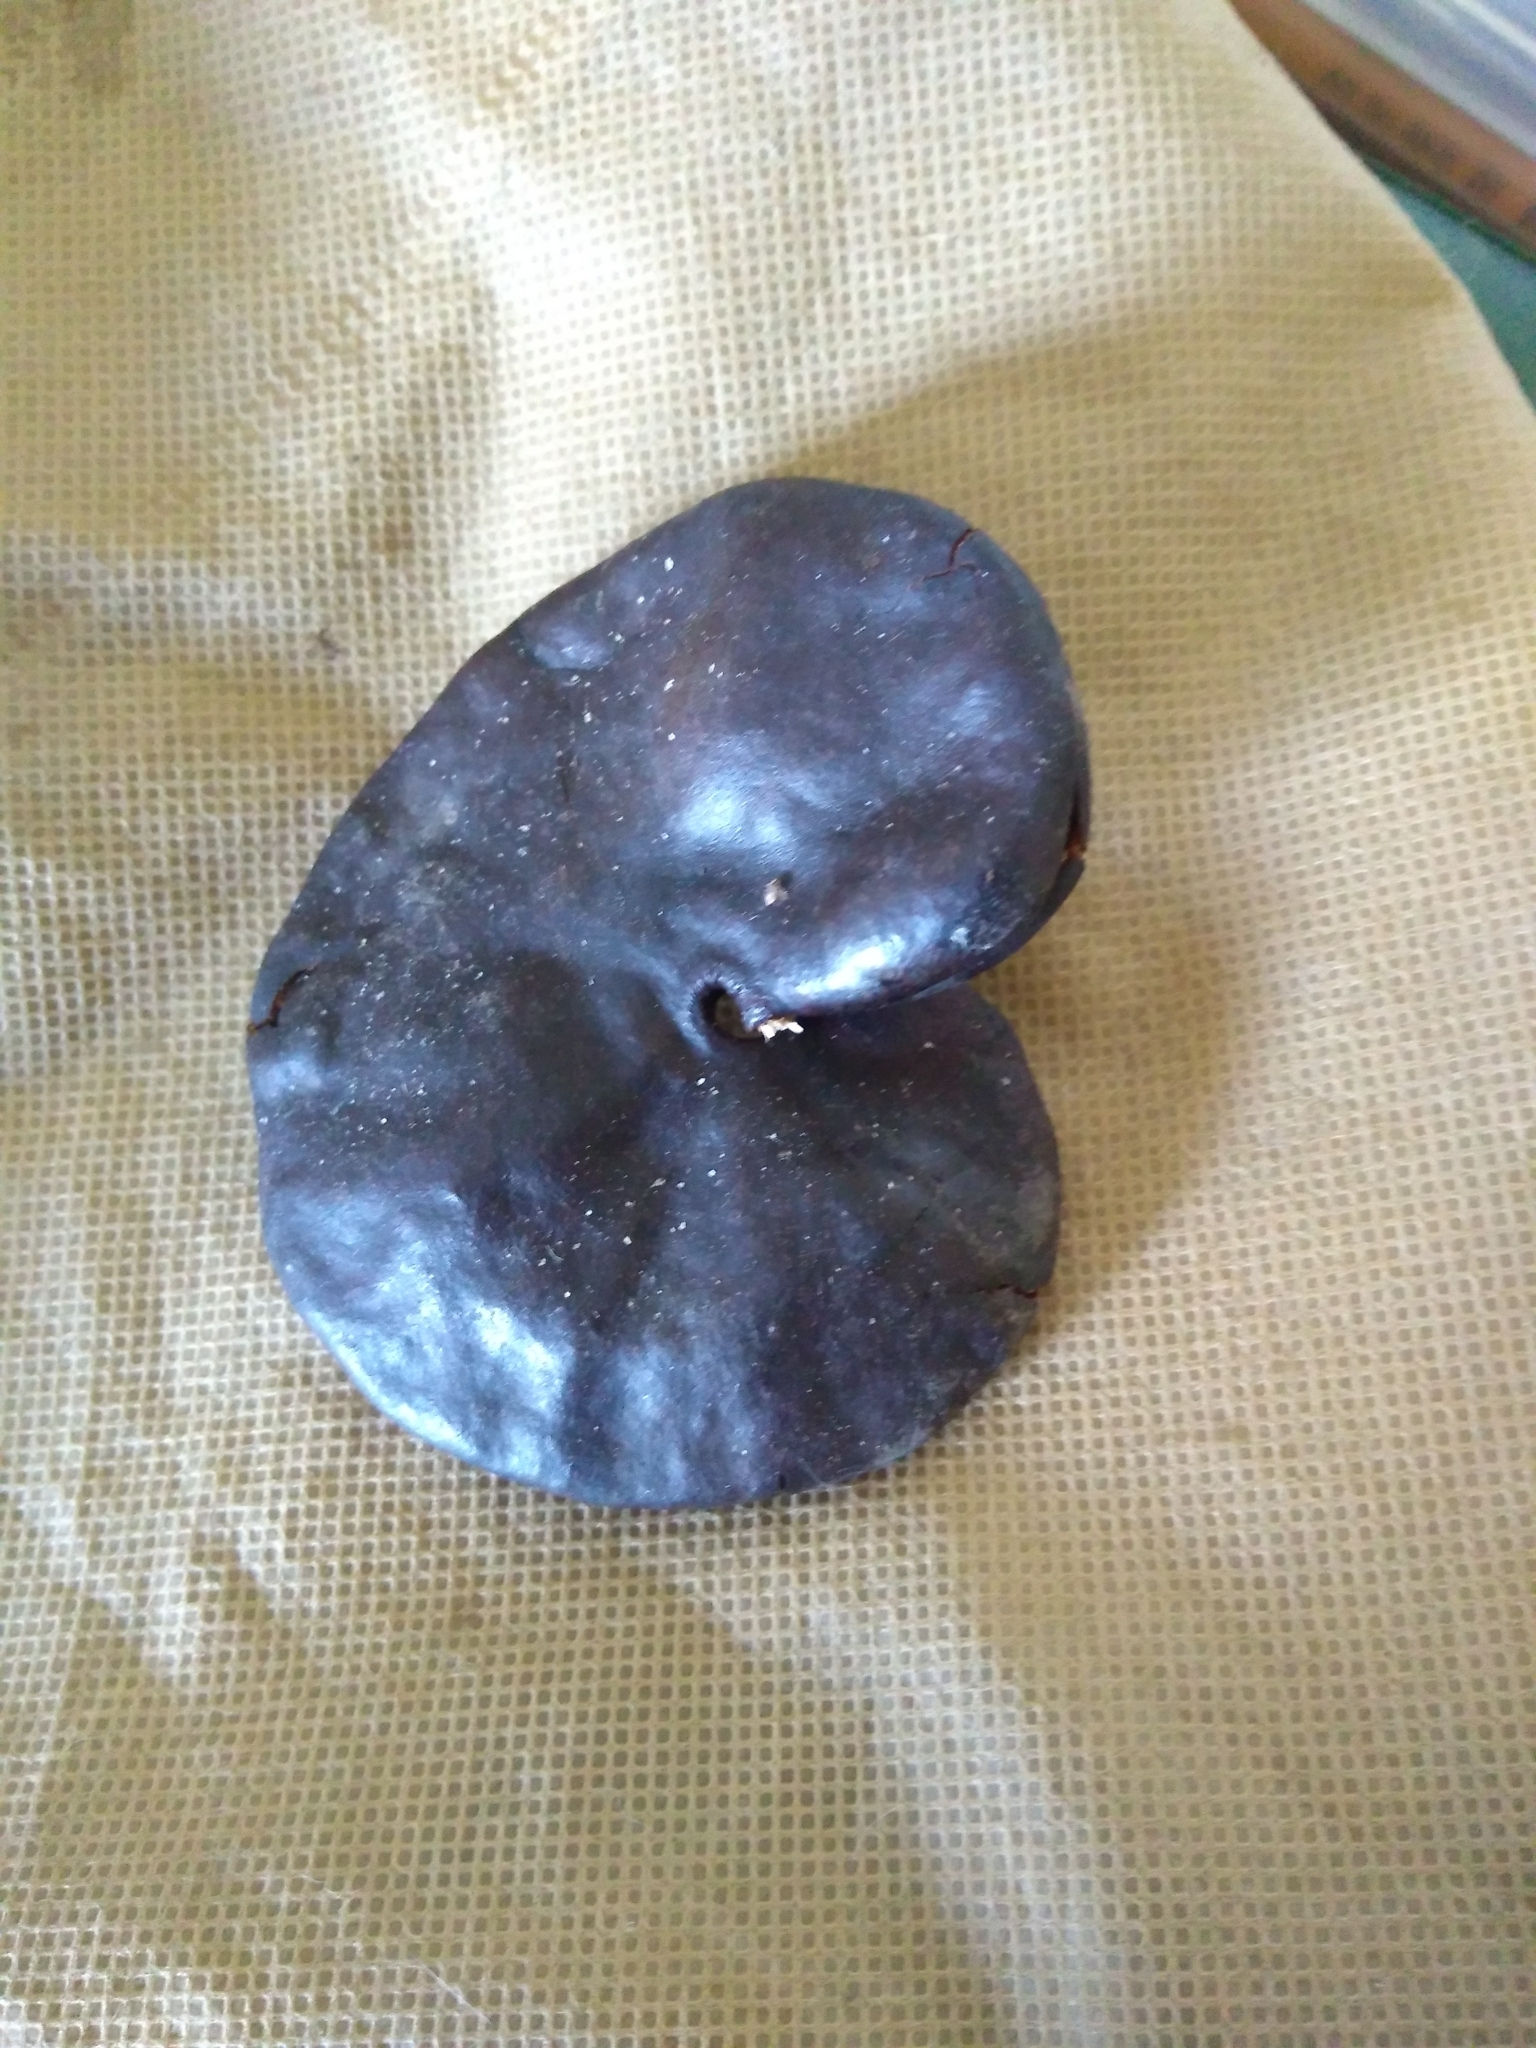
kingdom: Plantae
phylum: Tracheophyta
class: Magnoliopsida
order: Fabales
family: Fabaceae
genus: Enterolobium
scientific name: Enterolobium contortisiliquum
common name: Pacara earpod tree
